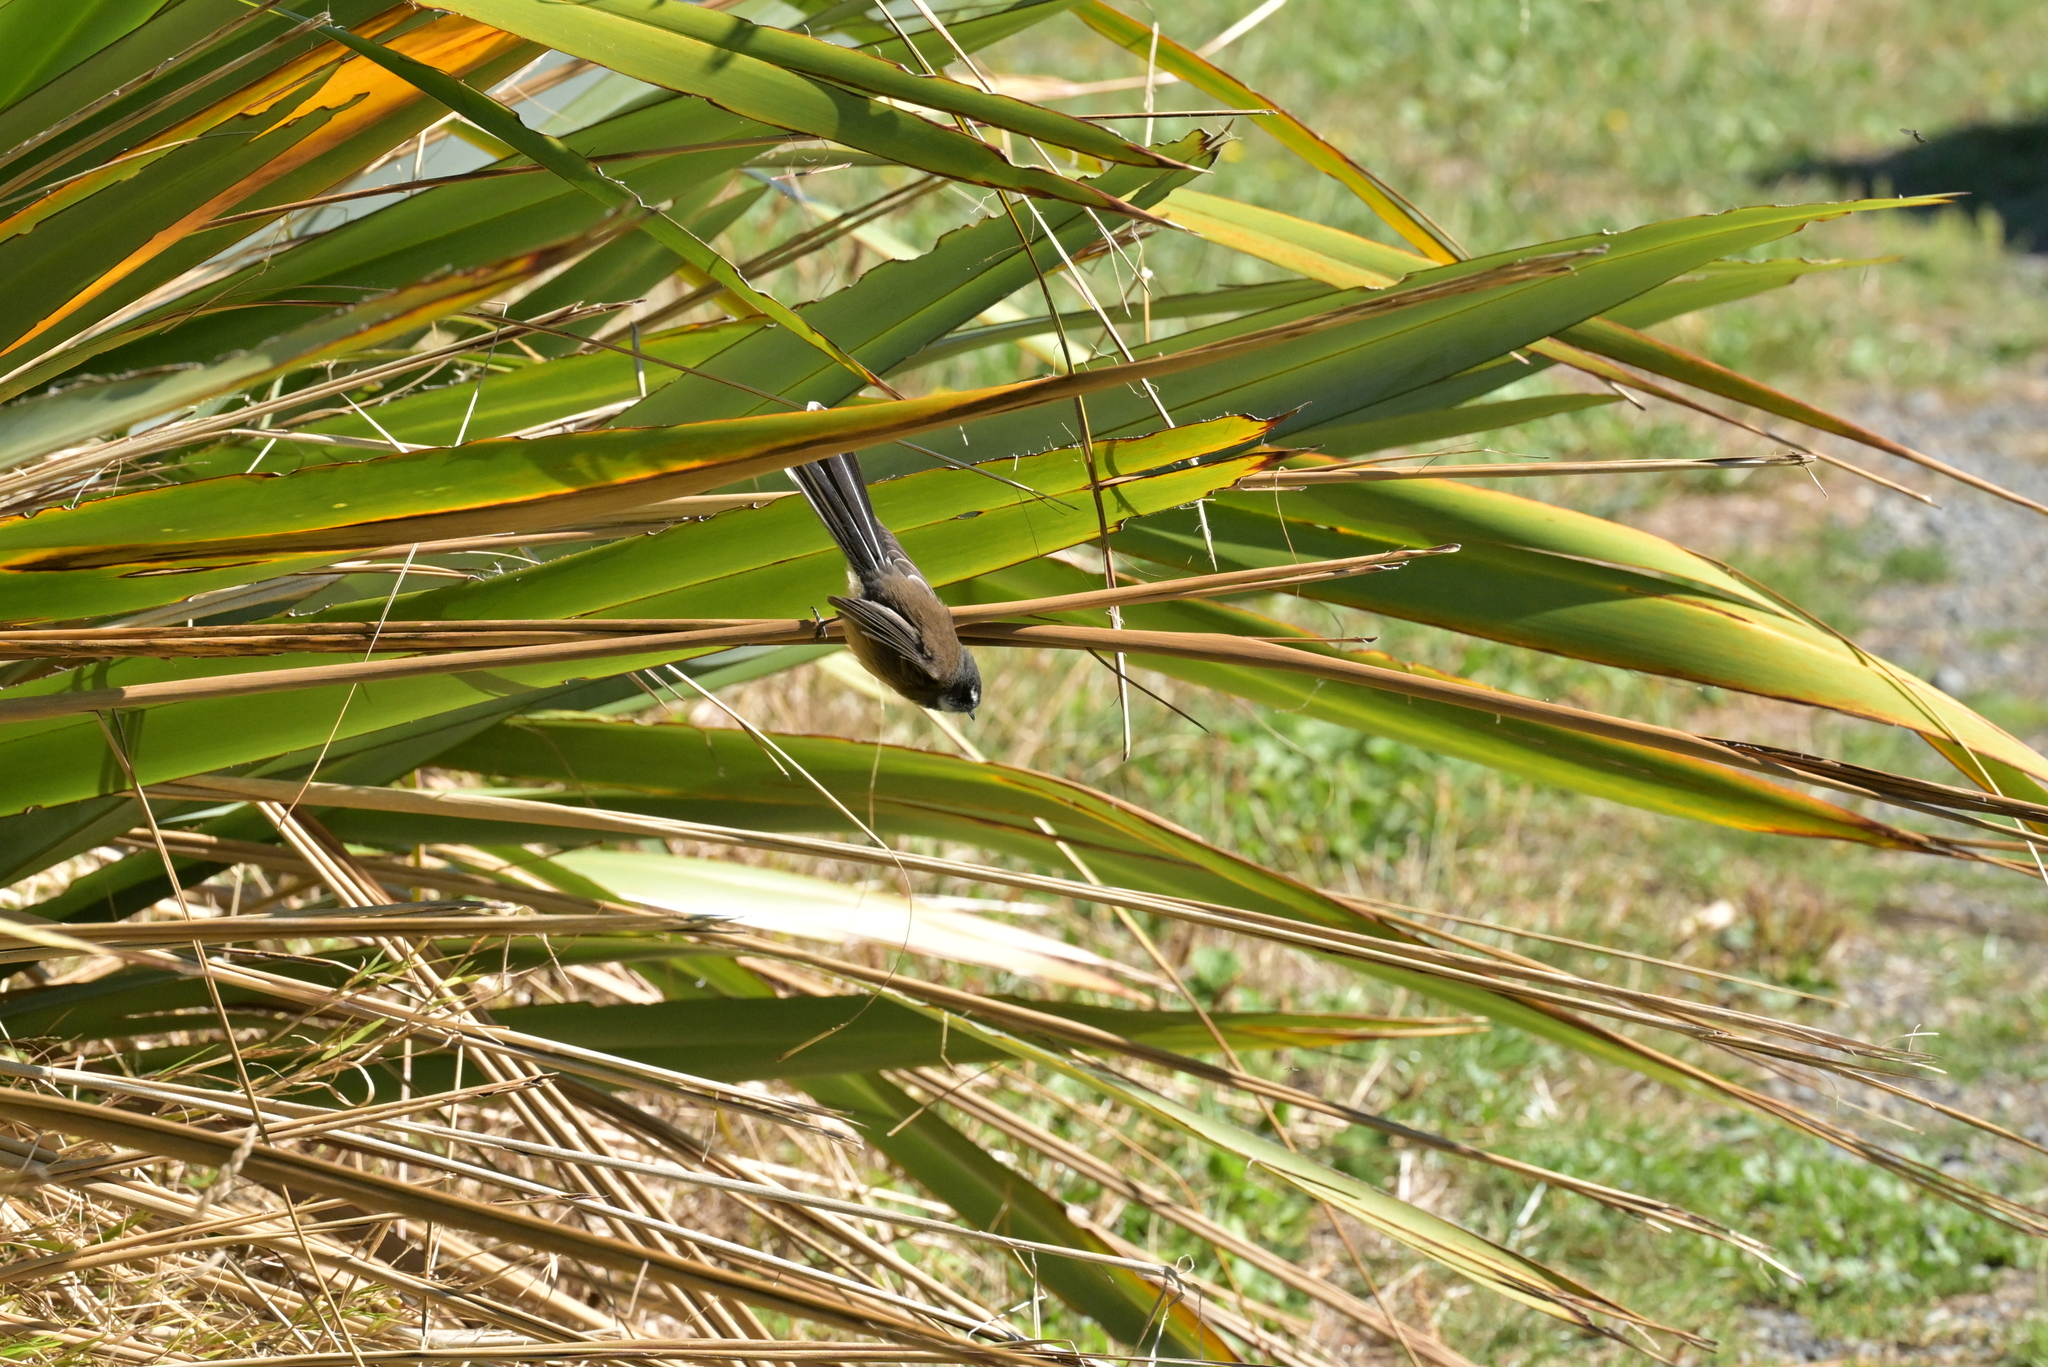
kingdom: Animalia
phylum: Chordata
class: Aves
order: Passeriformes
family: Rhipiduridae
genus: Rhipidura
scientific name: Rhipidura fuliginosa
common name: New zealand fantail
